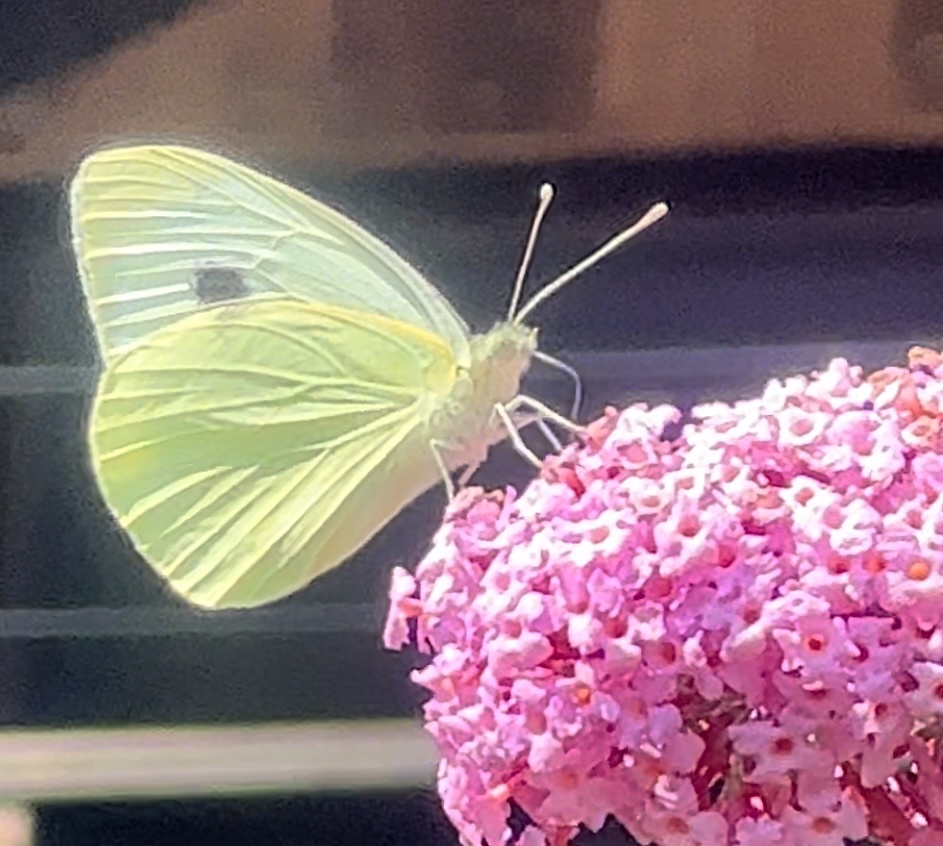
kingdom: Animalia
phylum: Arthropoda
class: Insecta
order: Lepidoptera
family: Pieridae
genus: Pieris
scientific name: Pieris brassicae
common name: Large white
